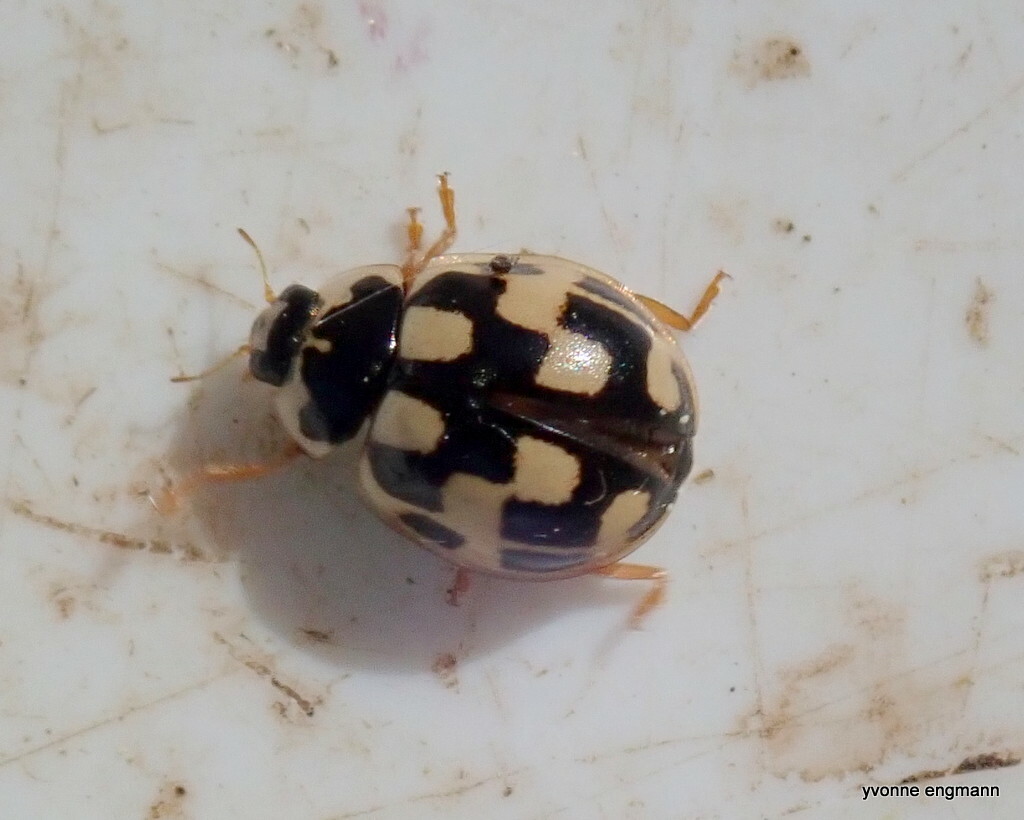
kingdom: Animalia
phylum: Arthropoda
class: Insecta
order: Coleoptera
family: Coccinellidae
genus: Propylaea
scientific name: Propylaea quatuordecimpunctata
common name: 14-spotted ladybird beetle
